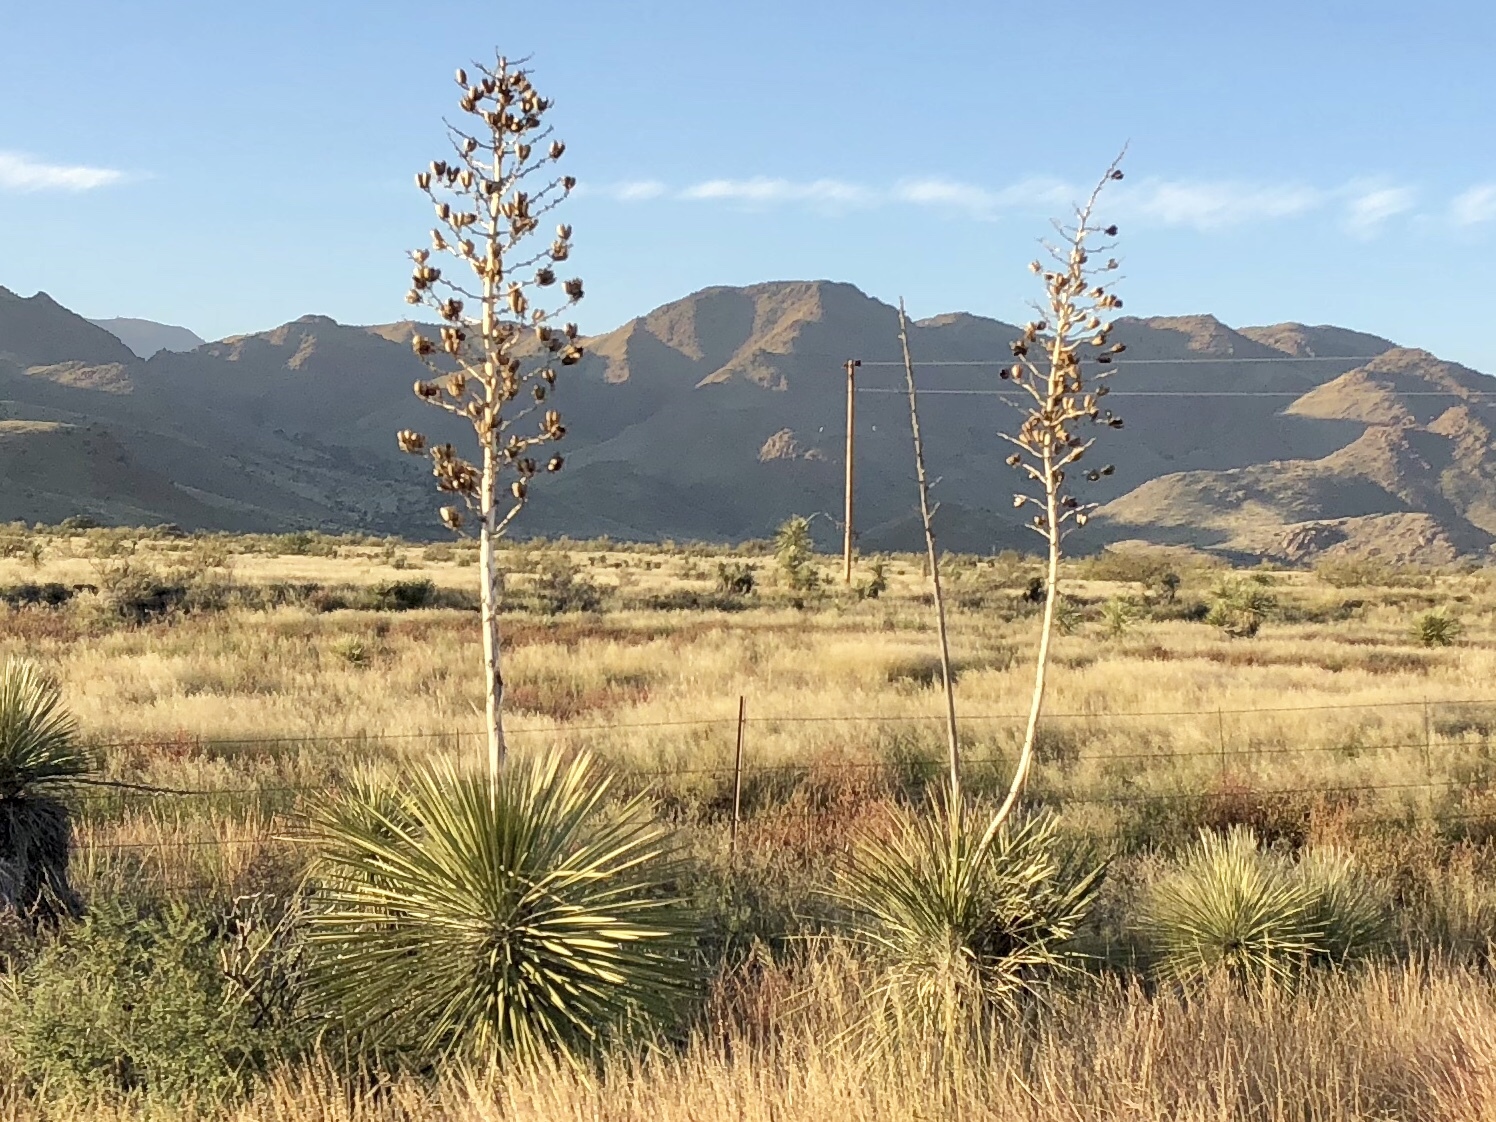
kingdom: Plantae
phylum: Tracheophyta
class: Liliopsida
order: Asparagales
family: Asparagaceae
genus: Yucca
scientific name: Yucca elata
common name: Palmella
